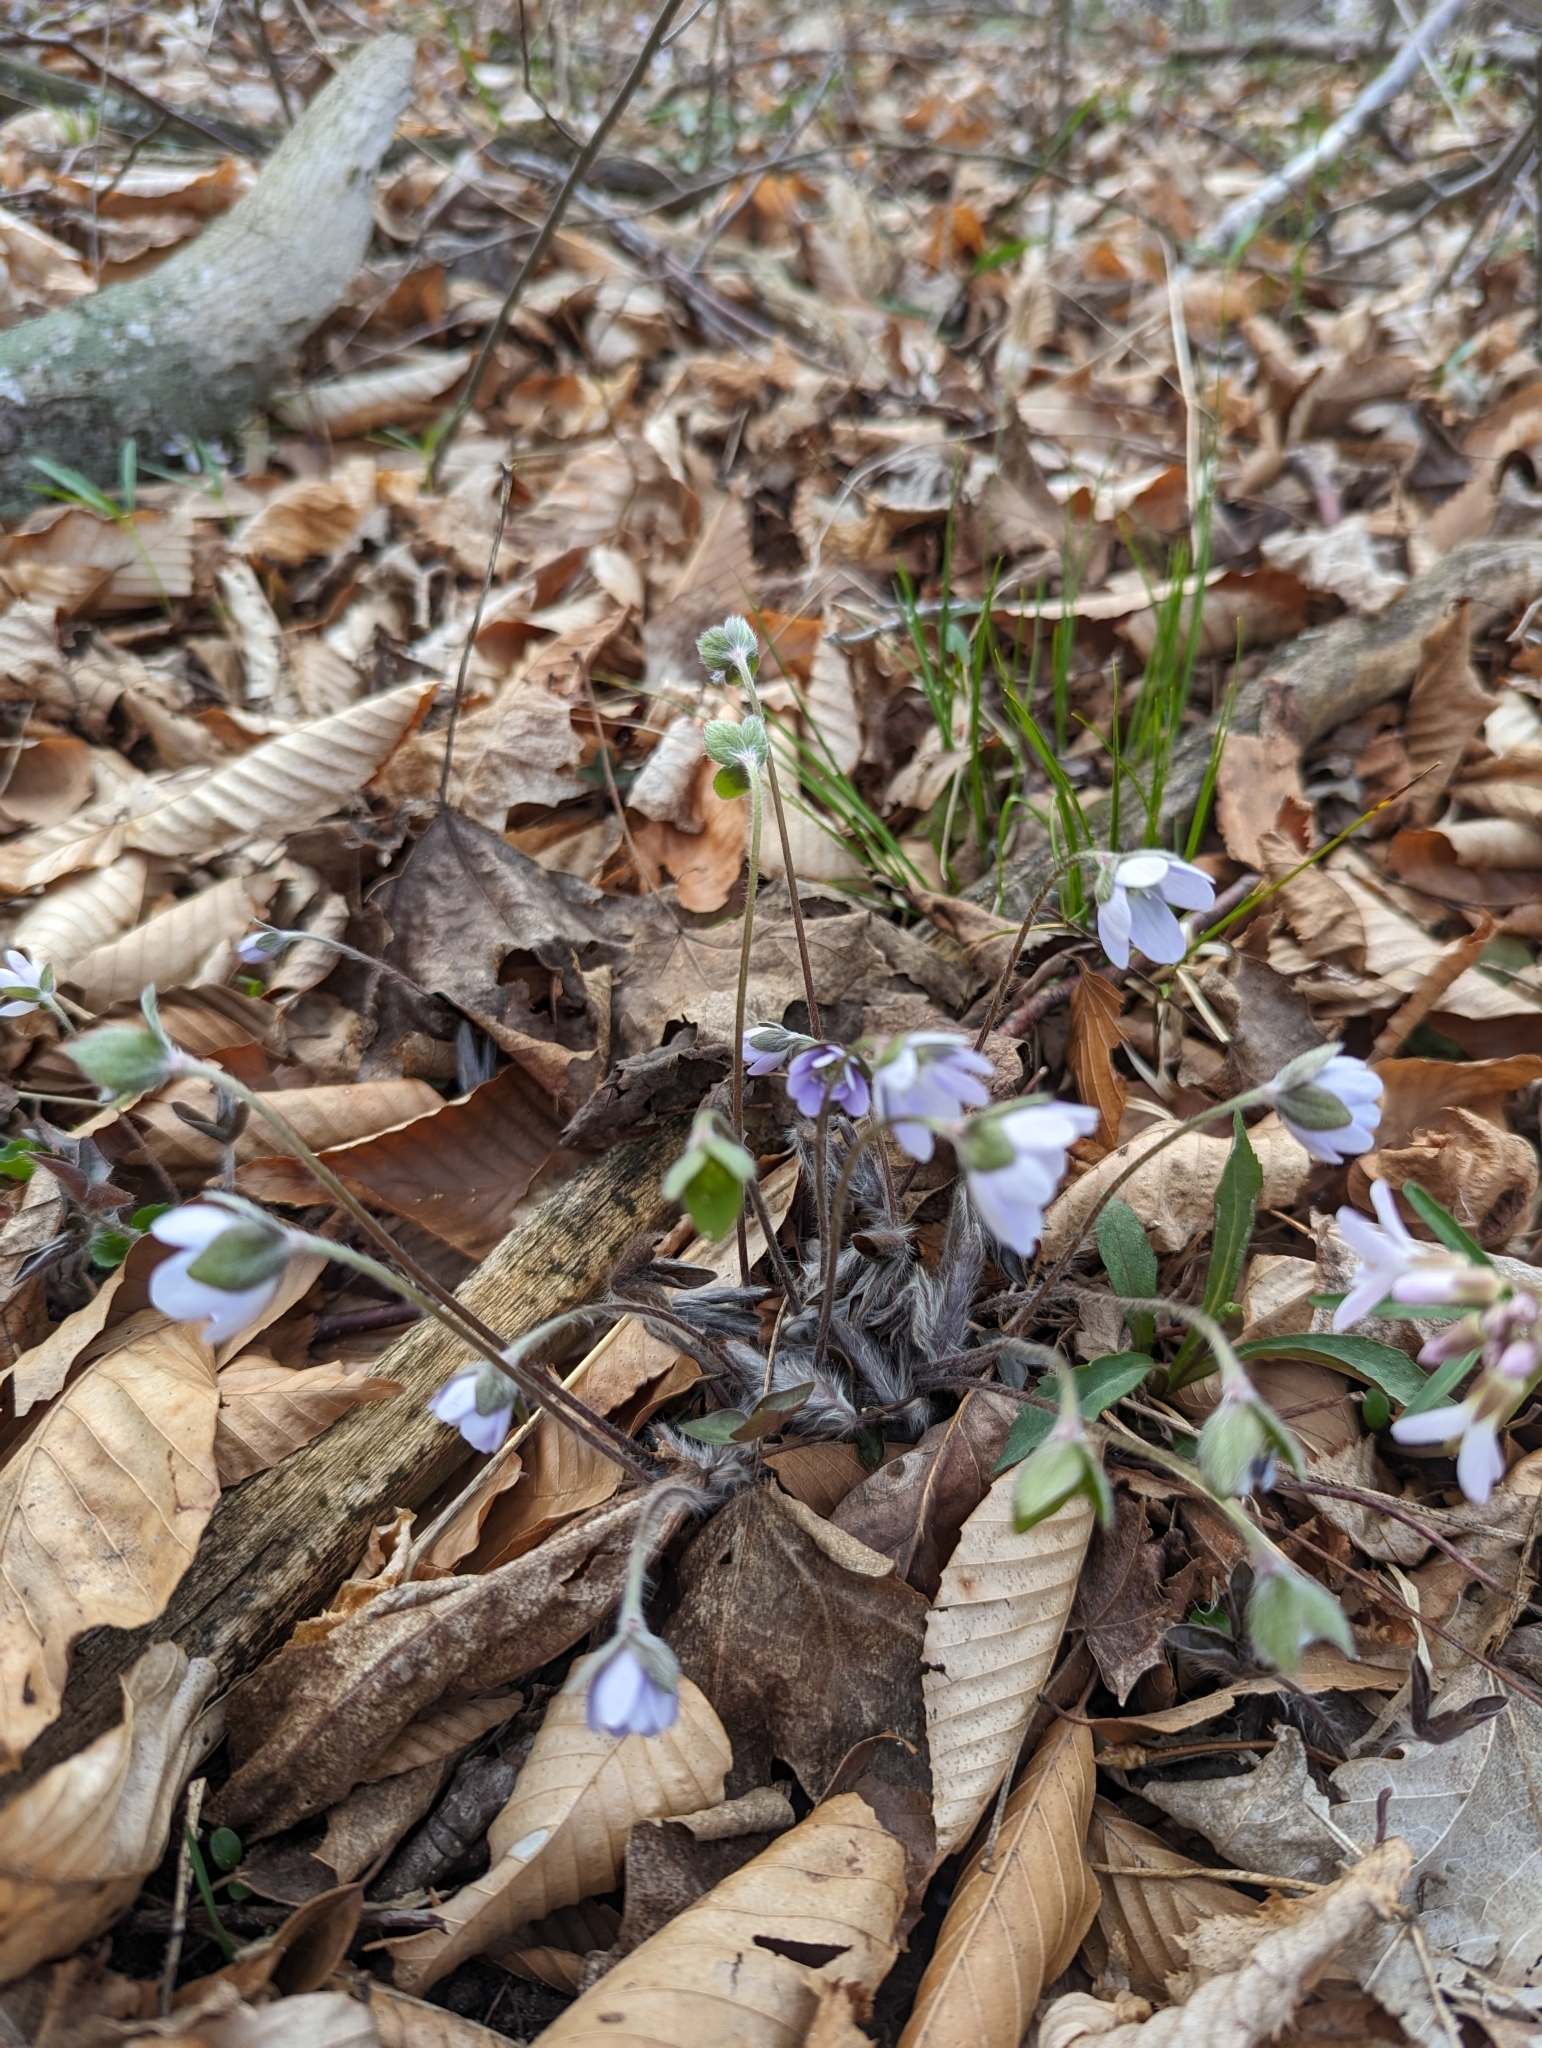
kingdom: Plantae
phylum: Tracheophyta
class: Magnoliopsida
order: Ranunculales
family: Ranunculaceae
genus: Hepatica
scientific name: Hepatica acutiloba
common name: Sharp-lobed hepatica
